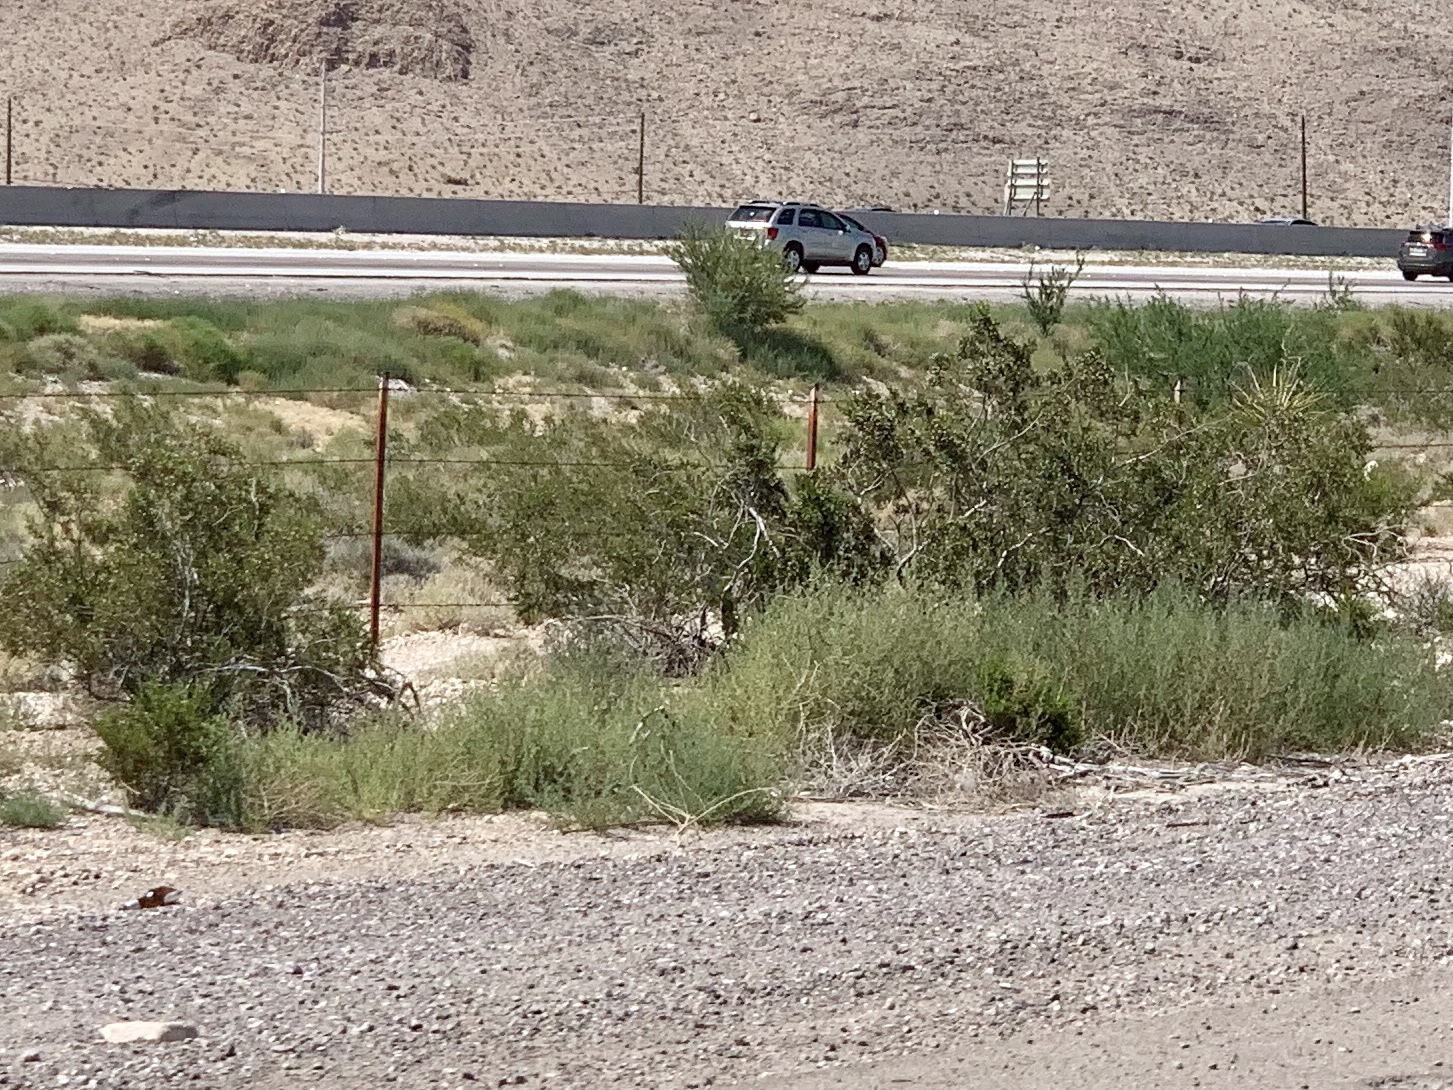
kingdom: Plantae
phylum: Tracheophyta
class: Magnoliopsida
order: Zygophyllales
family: Zygophyllaceae
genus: Larrea
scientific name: Larrea tridentata
